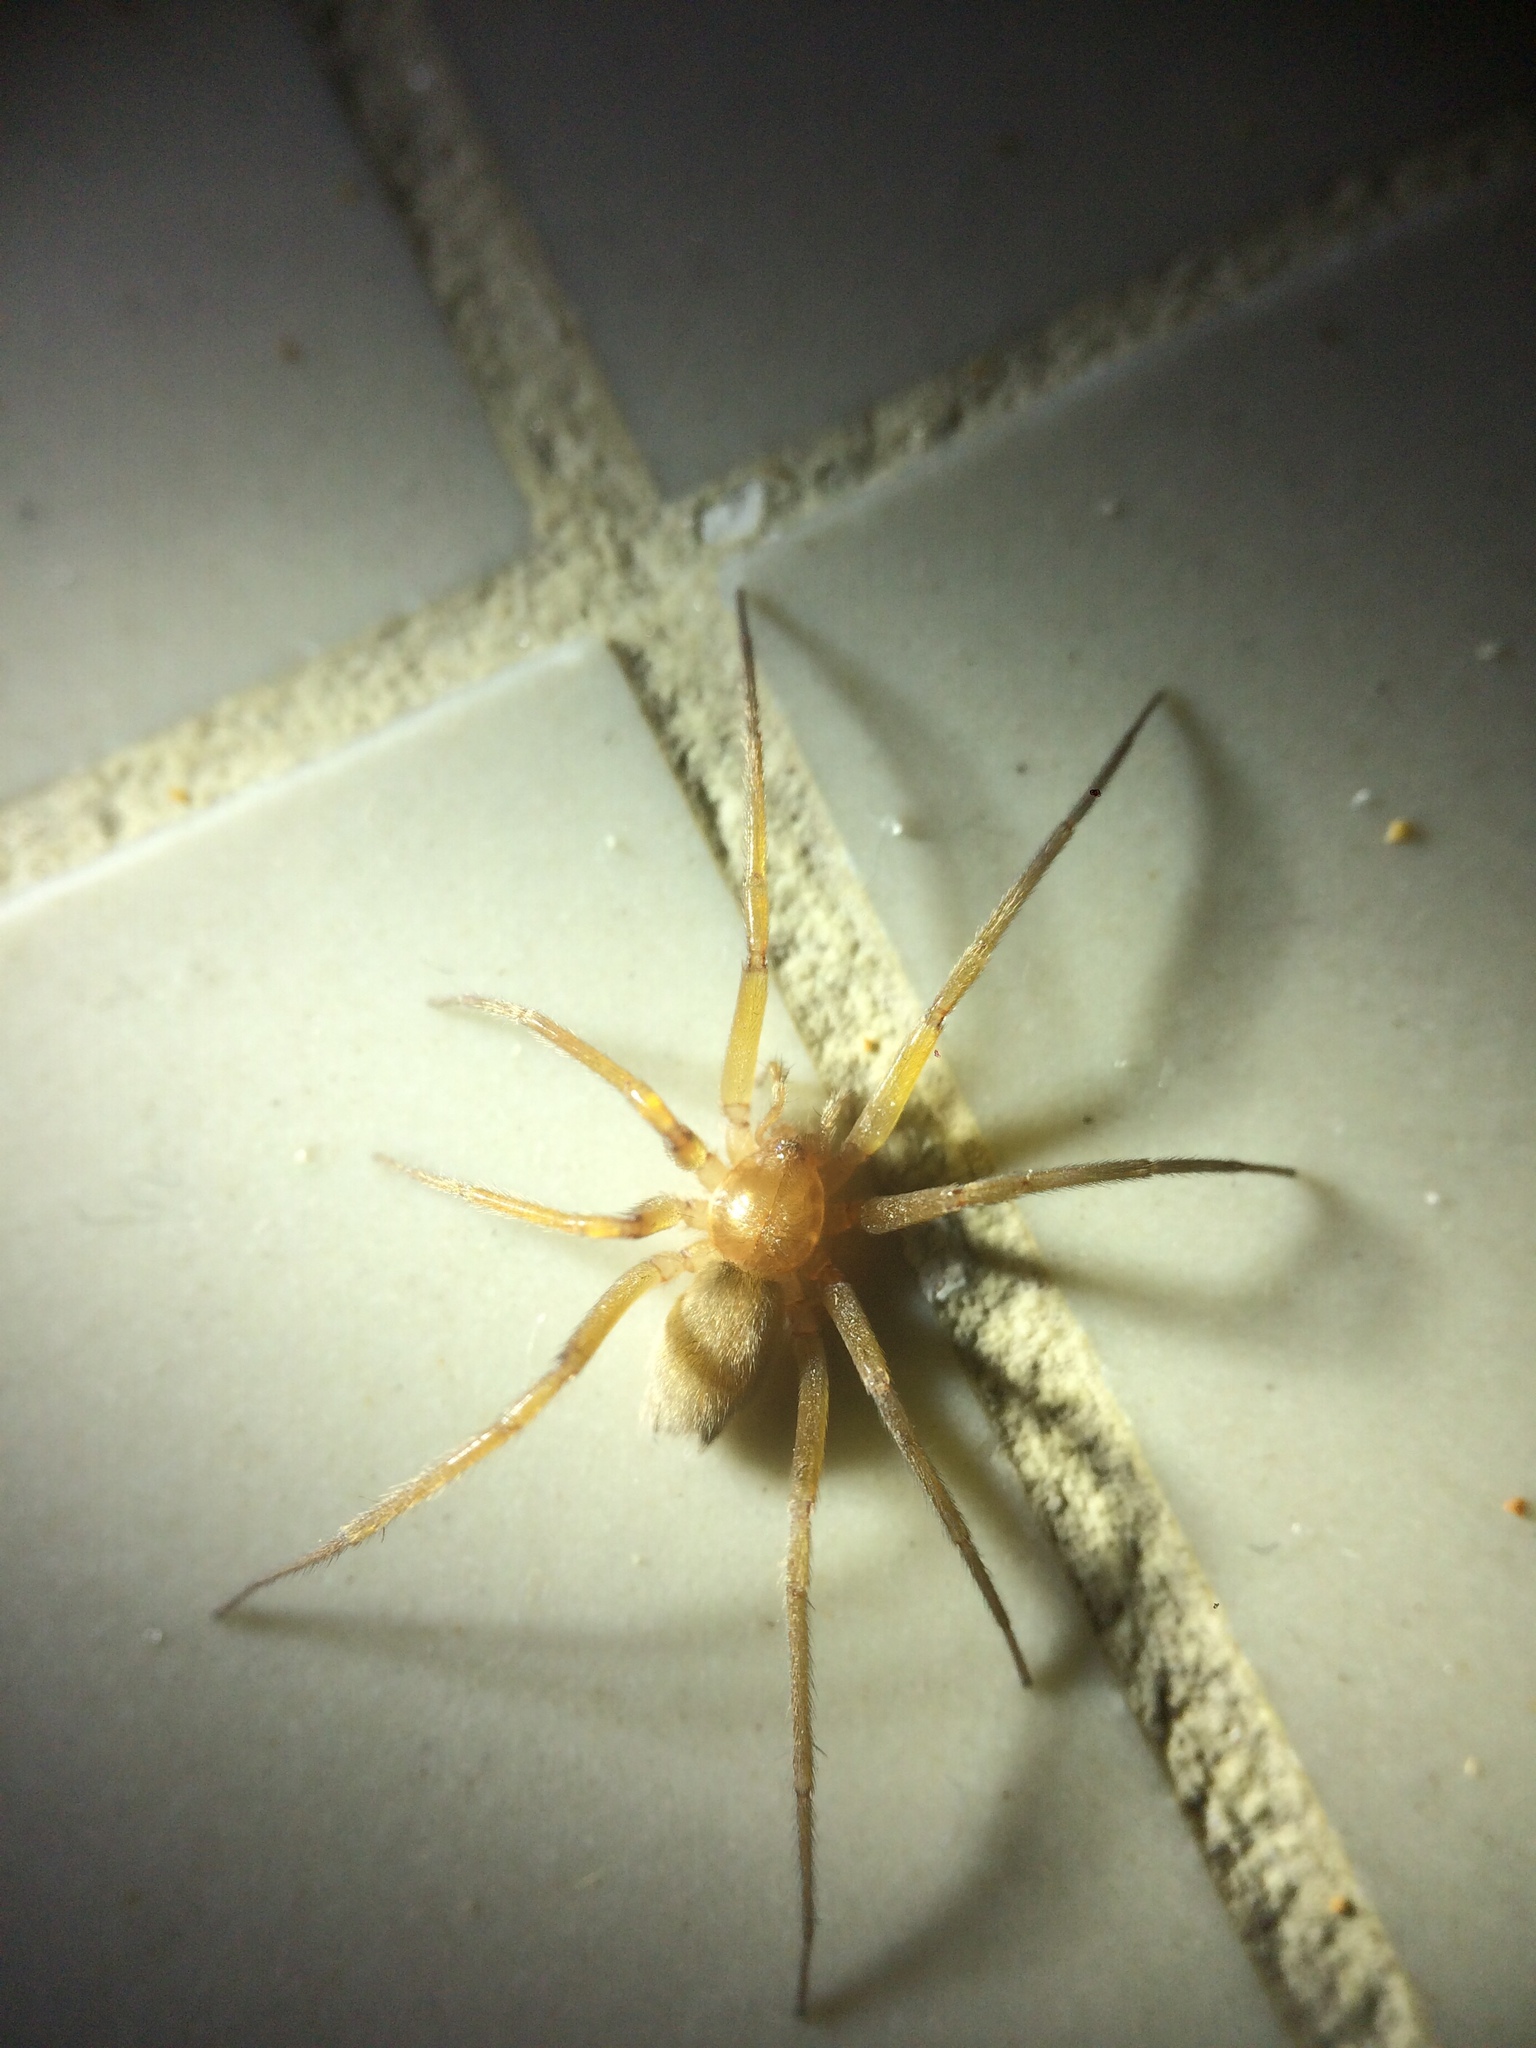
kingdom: Animalia
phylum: Arthropoda
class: Arachnida
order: Araneae
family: Prodidomidae
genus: Zimiris
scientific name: Zimiris doriae
